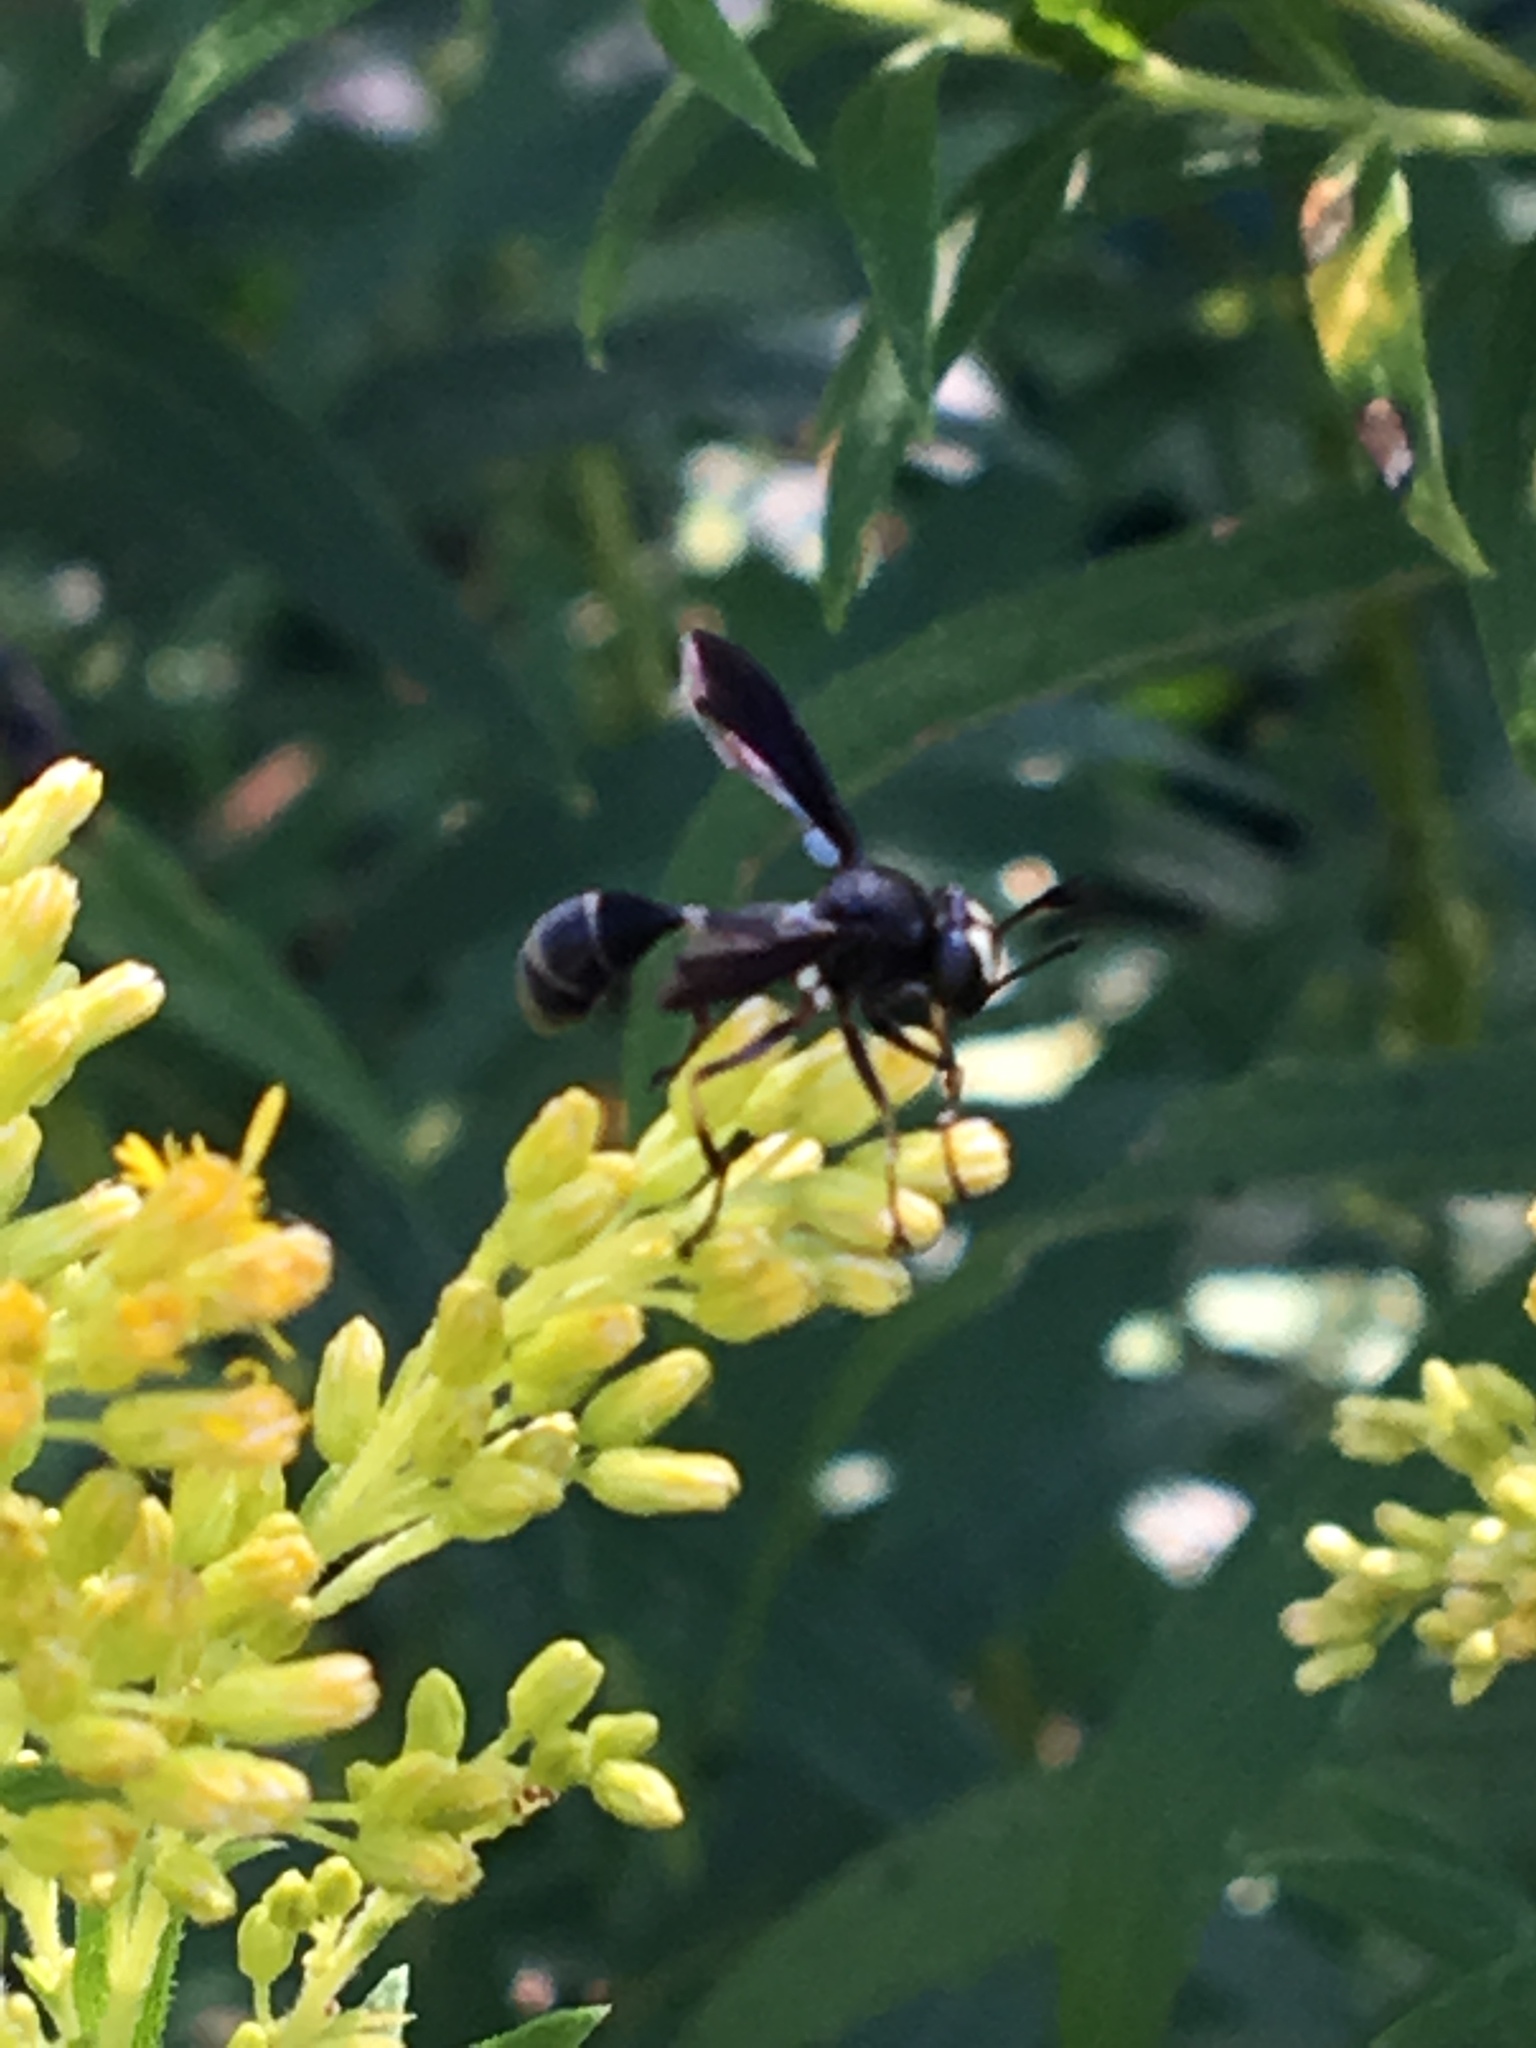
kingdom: Animalia
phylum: Arthropoda
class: Insecta
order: Diptera
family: Conopidae
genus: Physocephala
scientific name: Physocephala tibialis
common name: Common eastern physocephala
